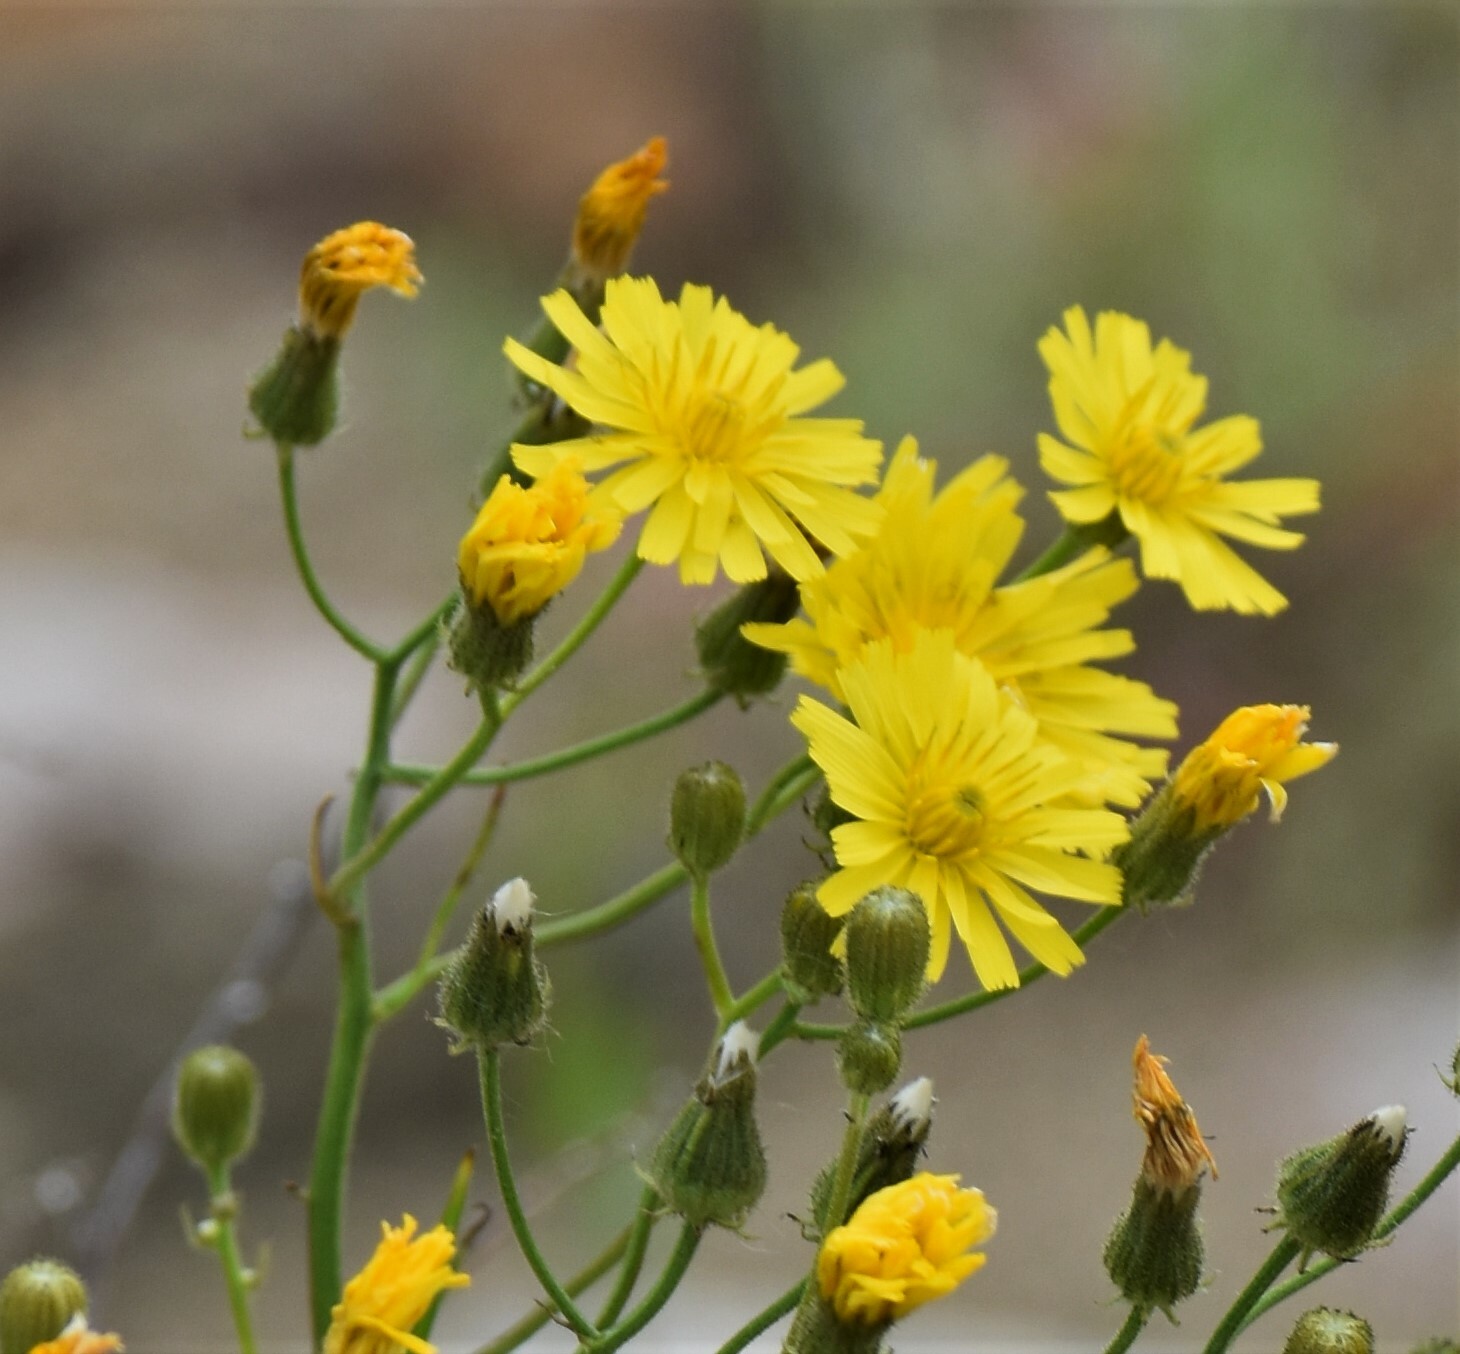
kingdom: Plantae
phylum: Tracheophyta
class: Magnoliopsida
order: Asterales
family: Asteraceae
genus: Crepis
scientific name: Crepis tectorum
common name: Narrow-leaved hawk's-beard
